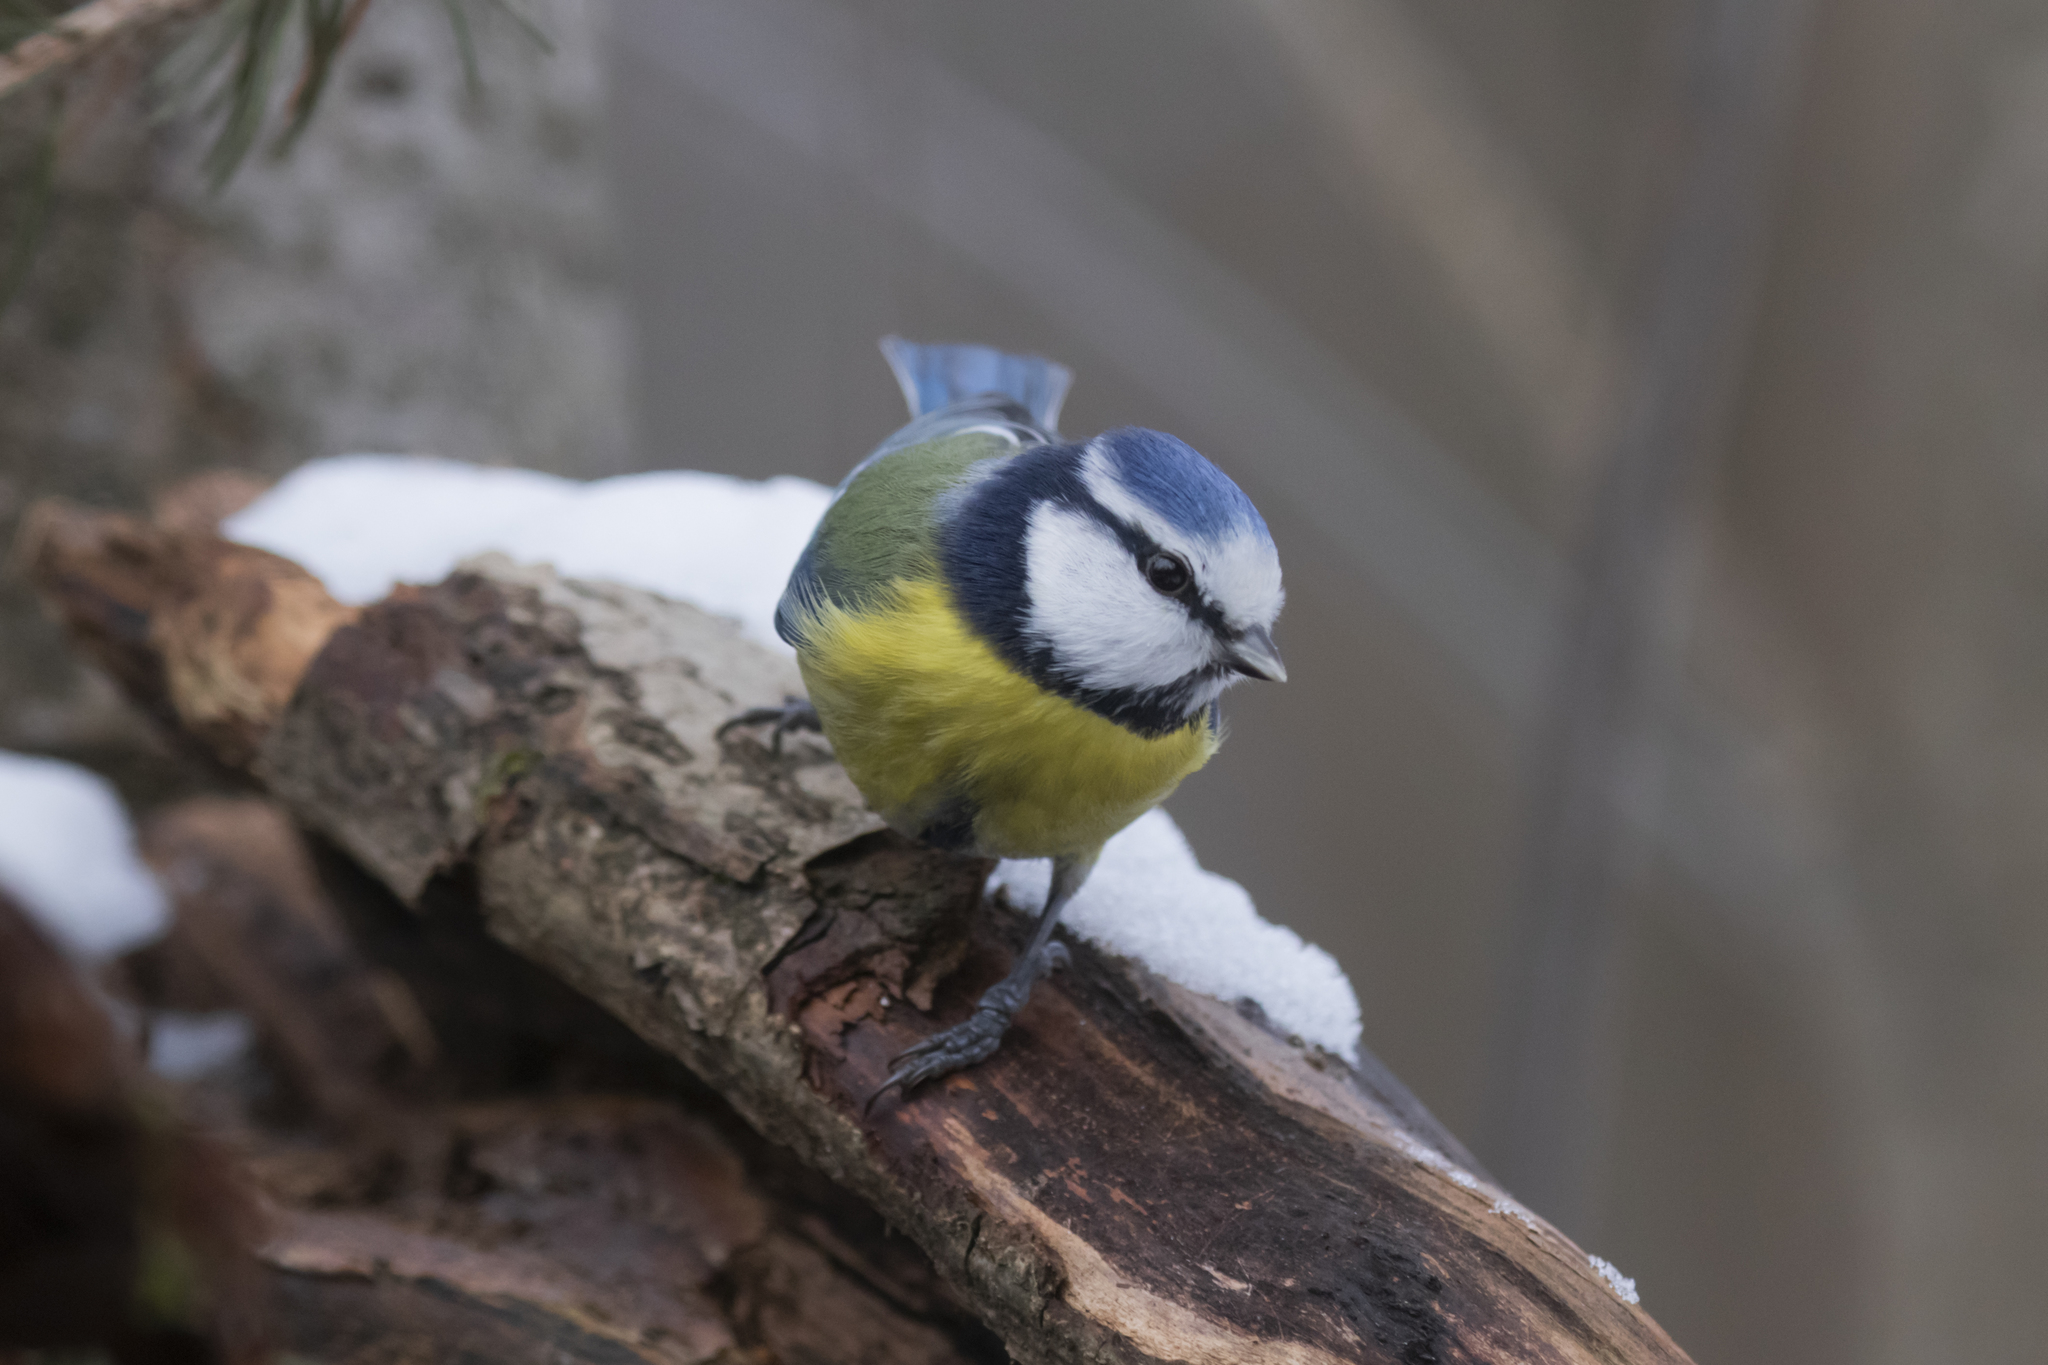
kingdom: Animalia
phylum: Chordata
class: Aves
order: Passeriformes
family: Paridae
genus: Cyanistes
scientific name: Cyanistes caeruleus
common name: Eurasian blue tit
